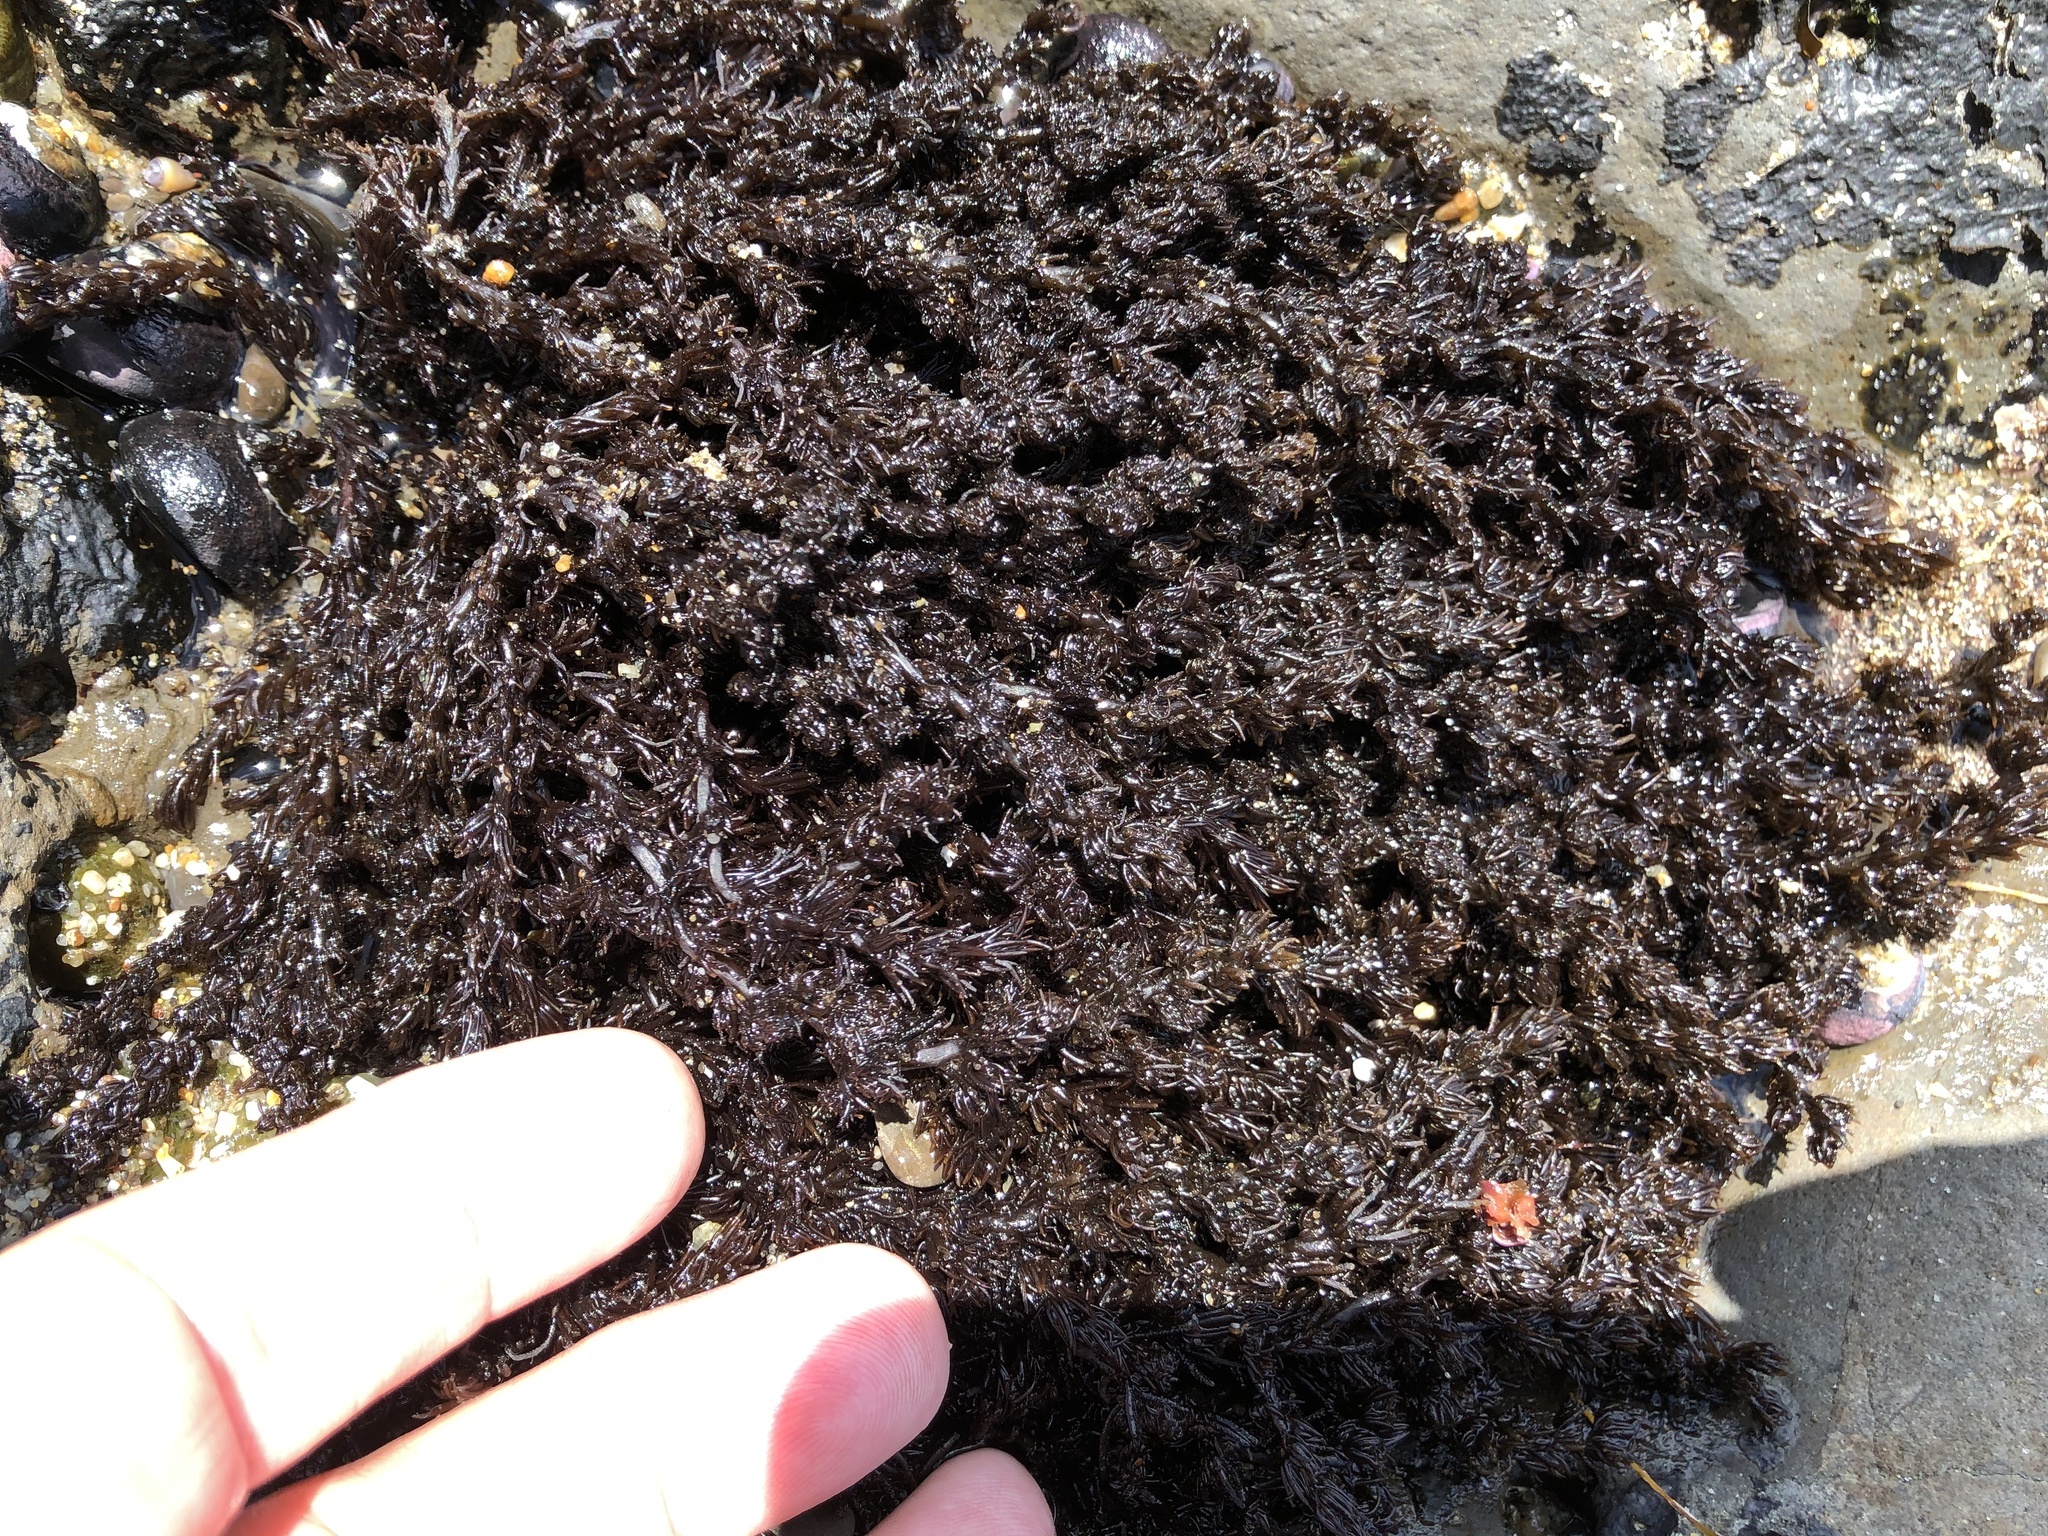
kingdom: Plantae
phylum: Rhodophyta
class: Florideophyceae
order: Ceramiales
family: Rhodomelaceae
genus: Neorhodomela
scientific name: Neorhodomela larix
